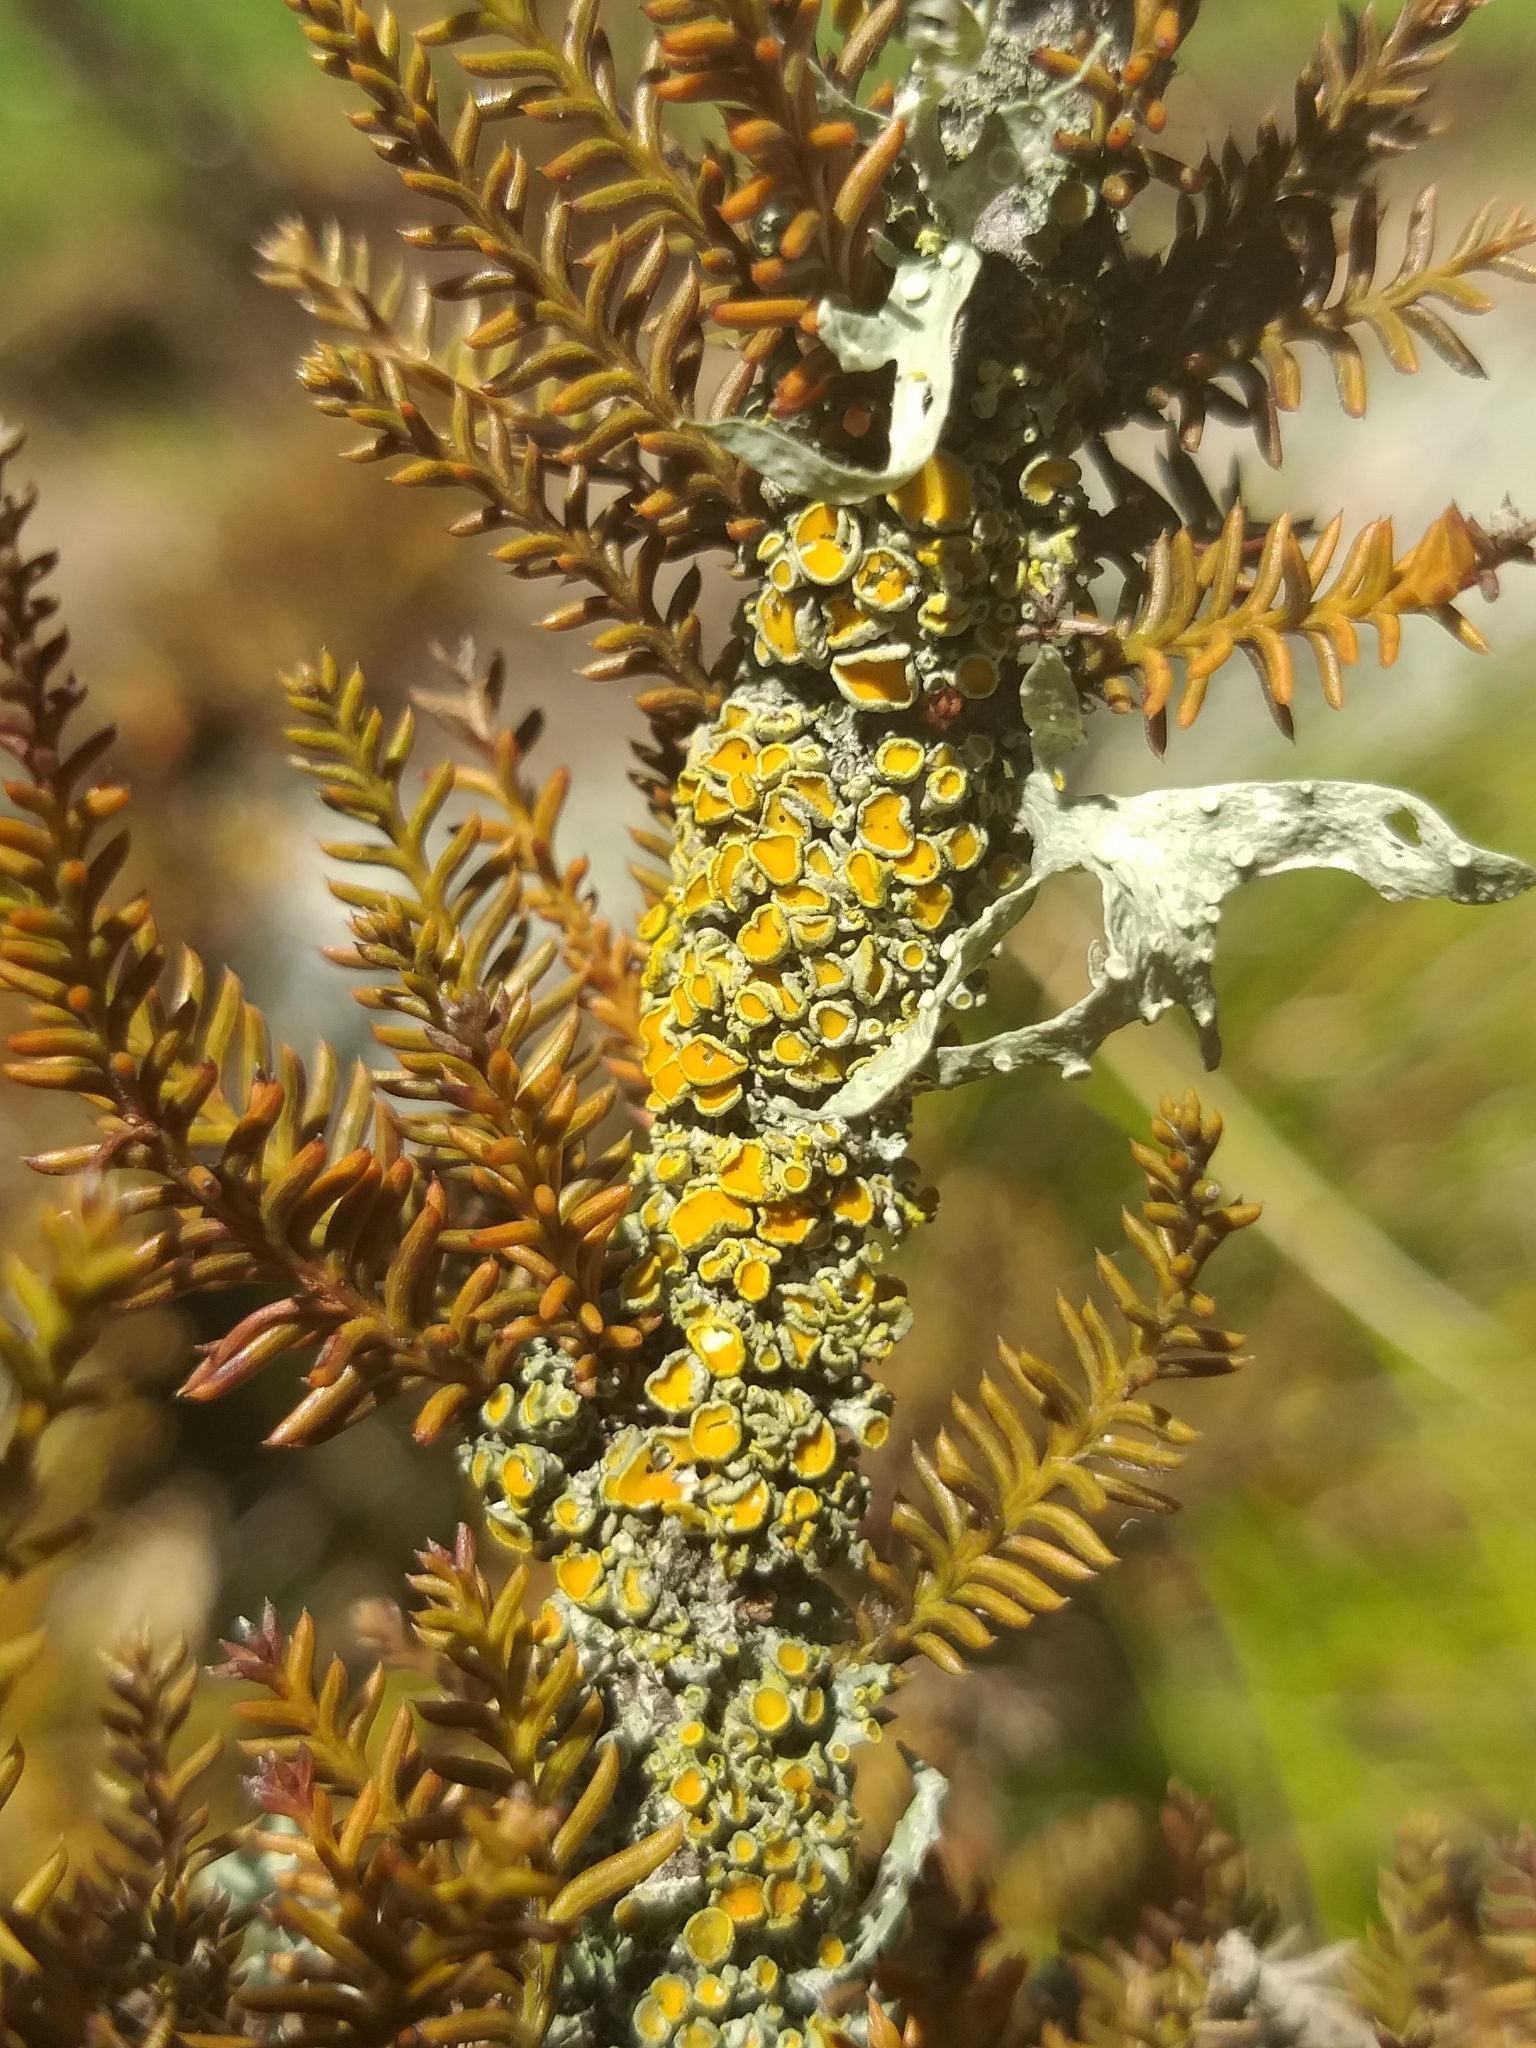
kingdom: Plantae
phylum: Tracheophyta
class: Pinopsida
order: Pinales
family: Podocarpaceae
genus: Dacrycarpus
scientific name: Dacrycarpus dacrydioides
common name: White pine
